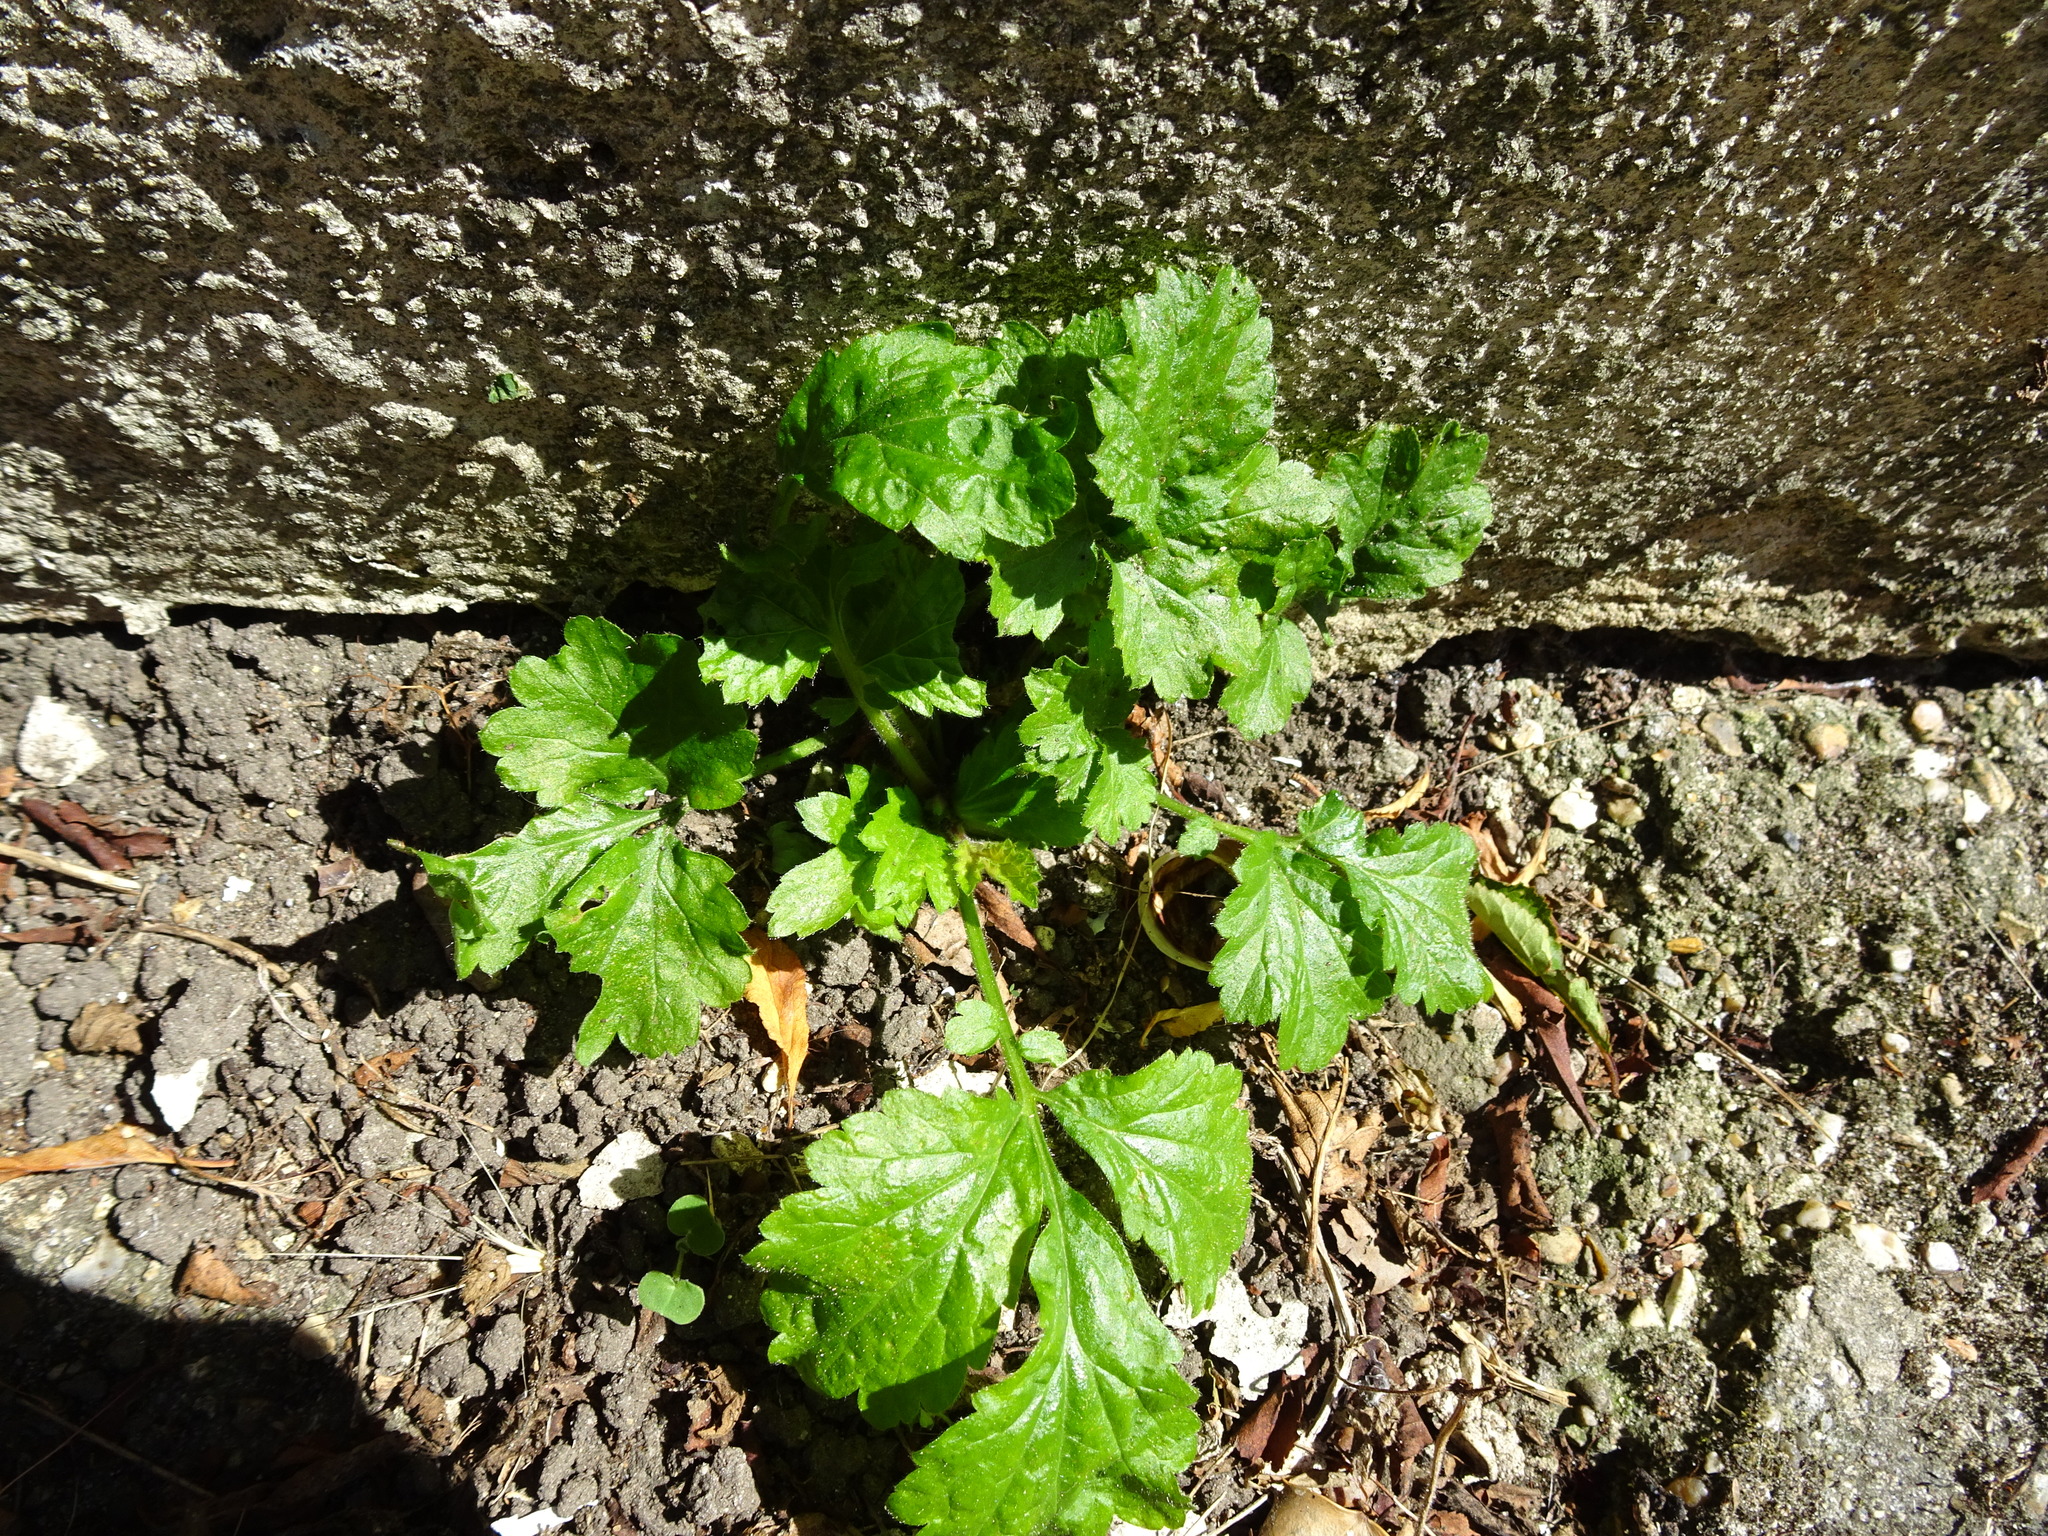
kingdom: Plantae
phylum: Tracheophyta
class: Magnoliopsida
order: Rosales
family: Rosaceae
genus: Geum
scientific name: Geum urbanum
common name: Wood avens
